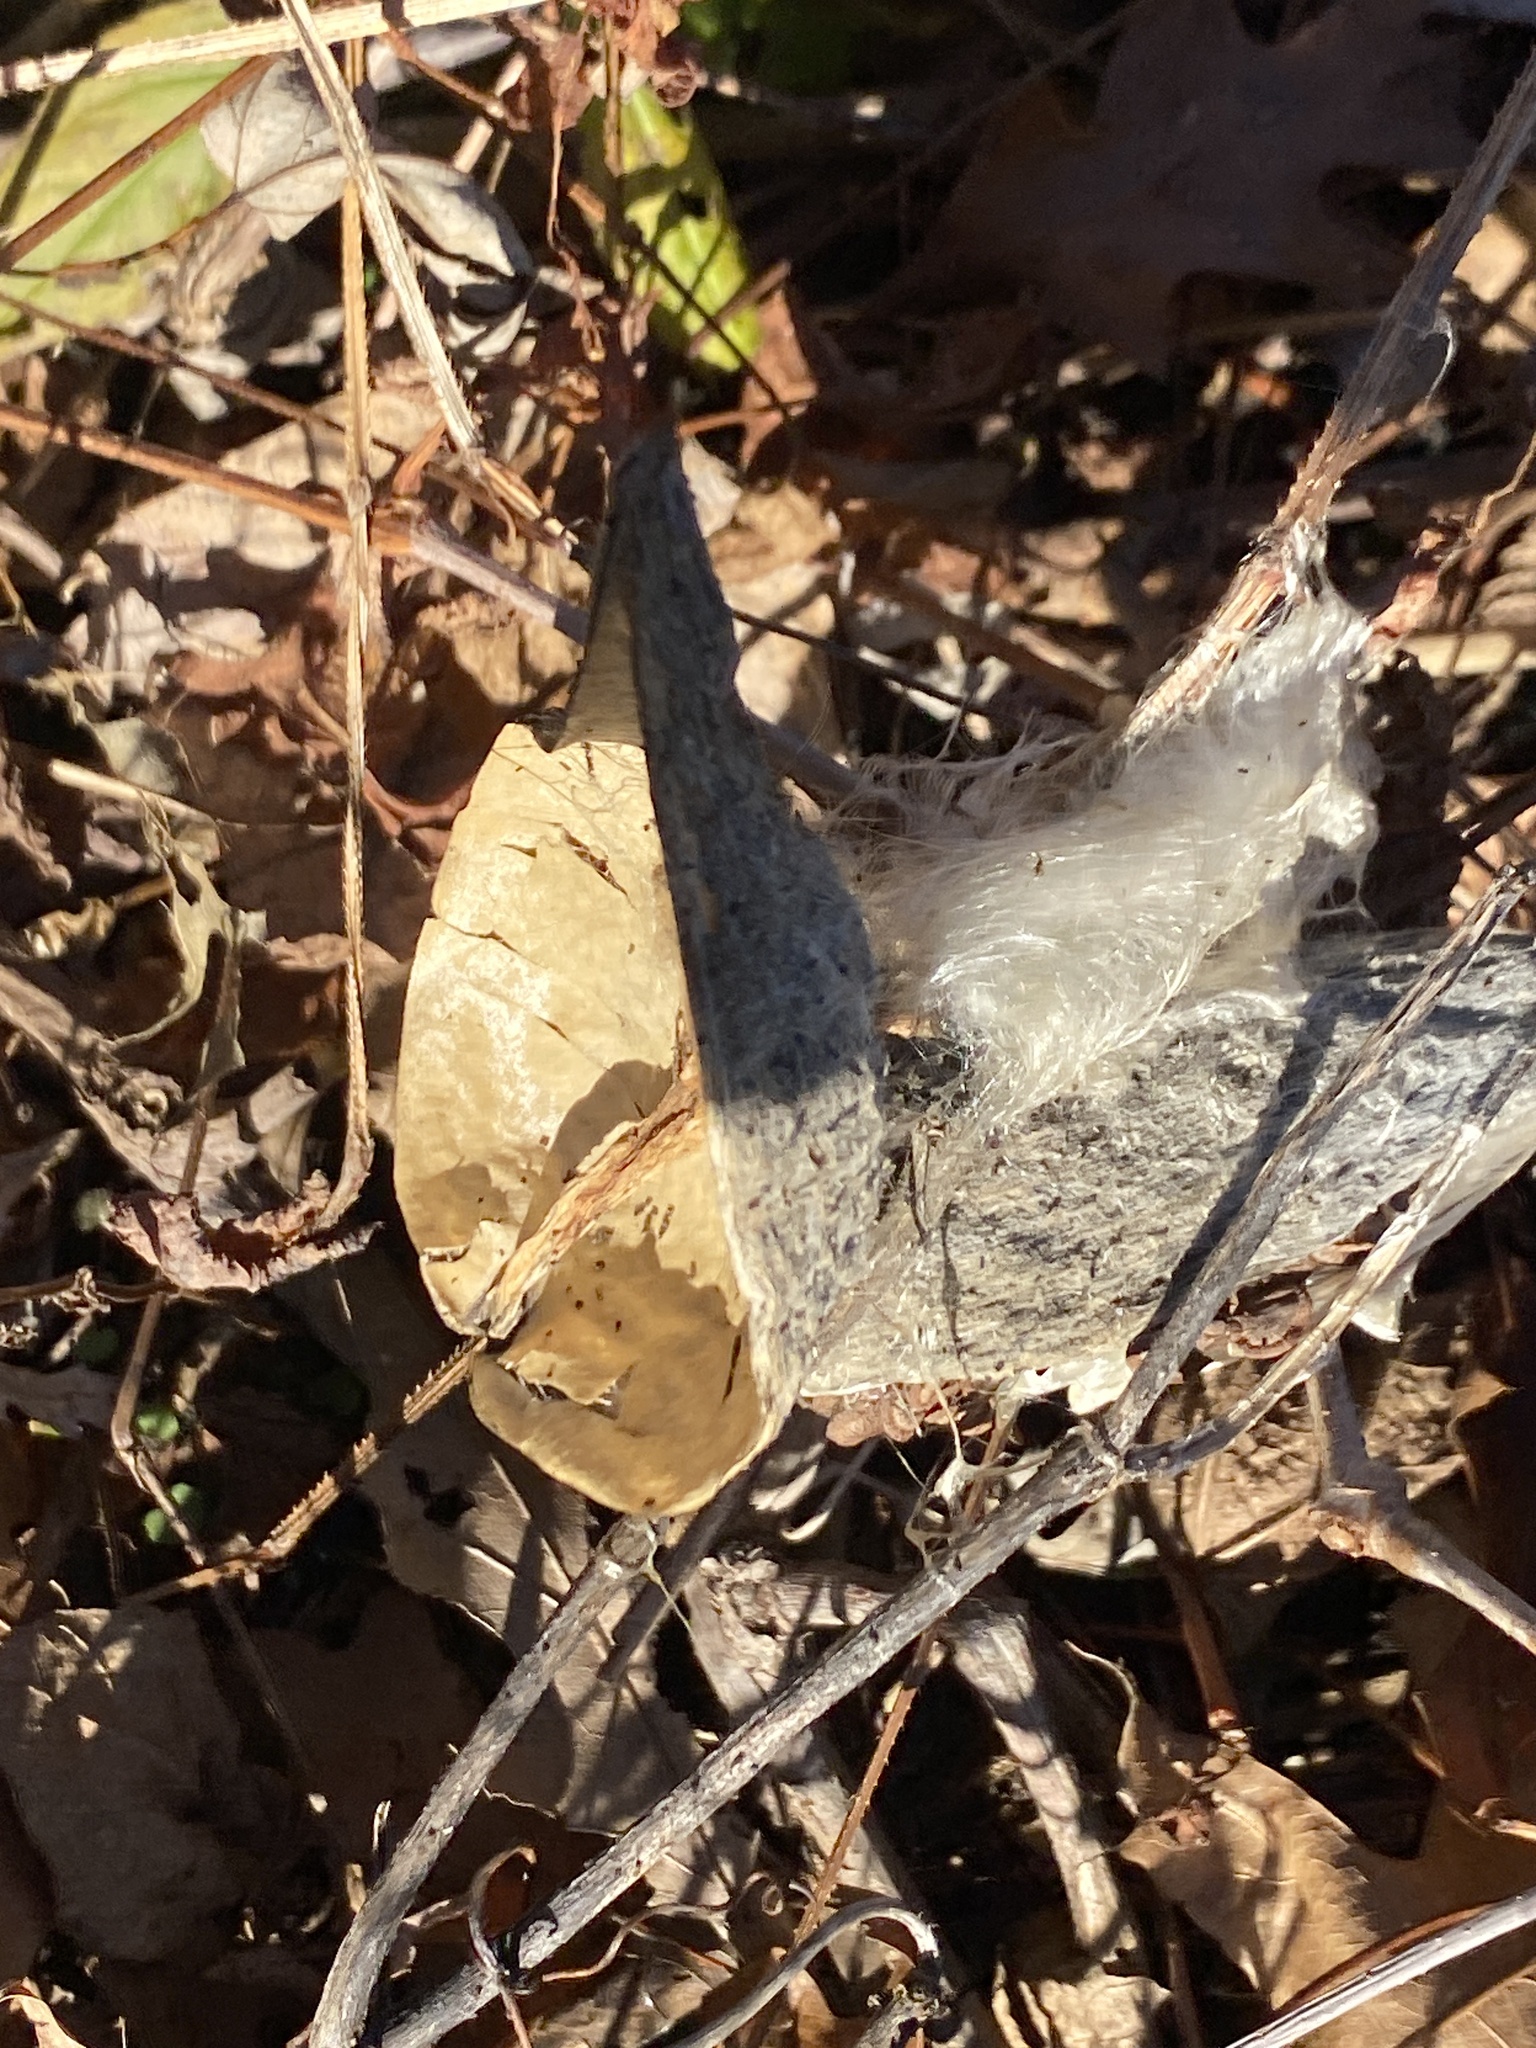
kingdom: Plantae
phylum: Tracheophyta
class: Magnoliopsida
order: Gentianales
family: Apocynaceae
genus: Asclepias
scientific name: Asclepias syriaca
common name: Common milkweed
